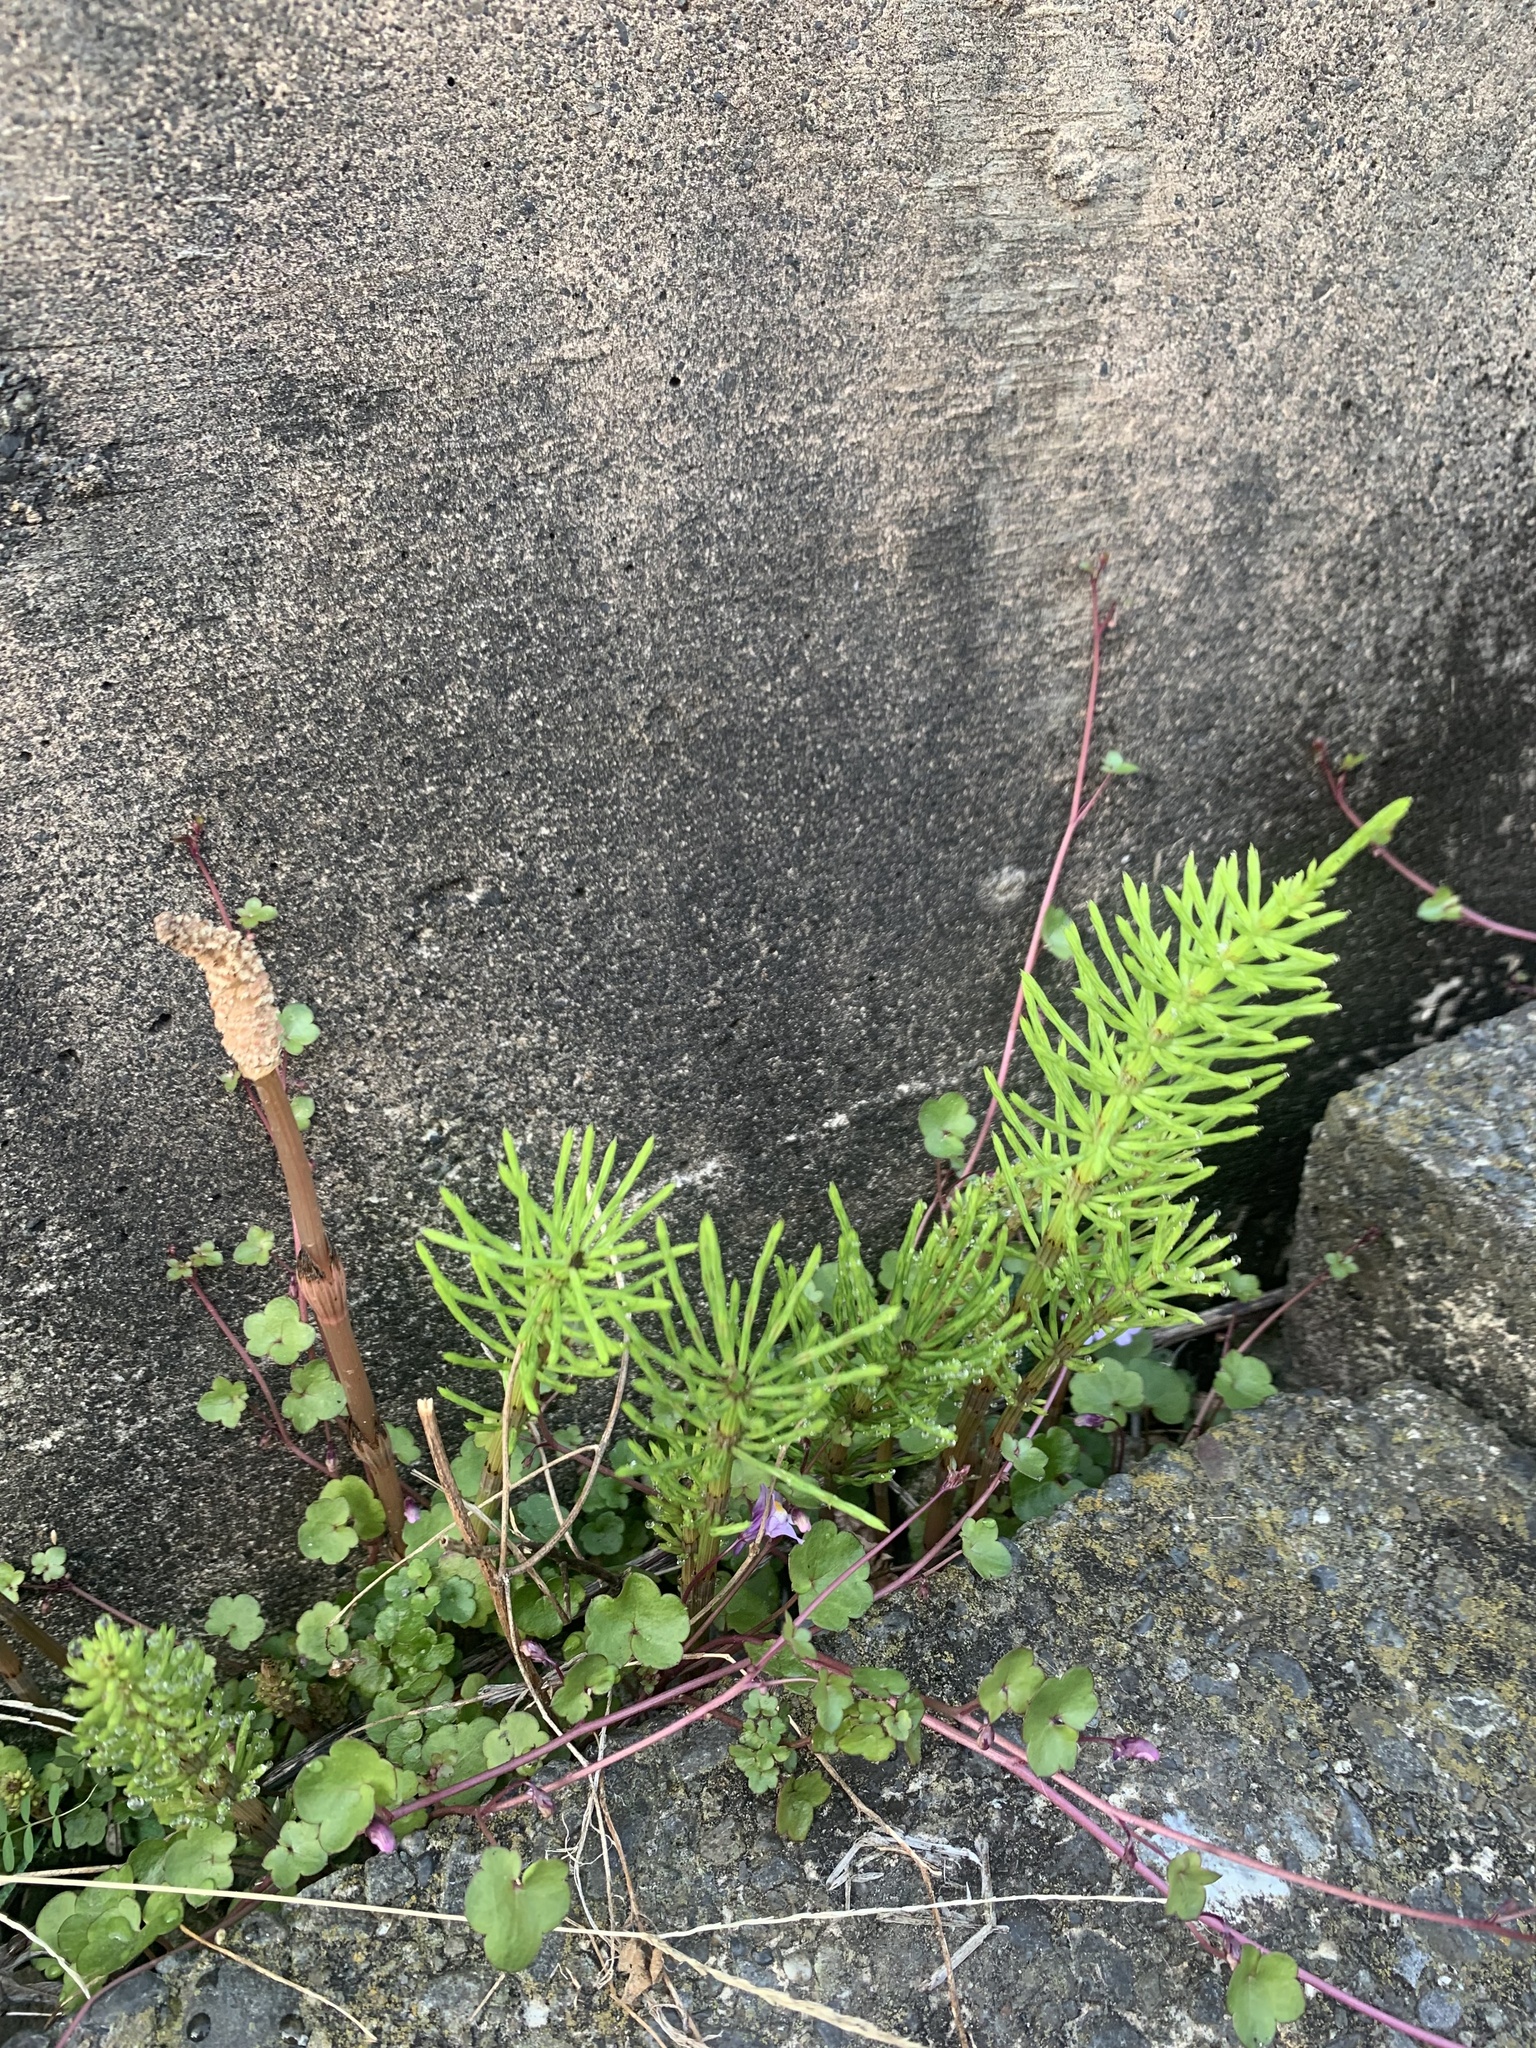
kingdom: Plantae
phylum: Tracheophyta
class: Polypodiopsida
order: Equisetales
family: Equisetaceae
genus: Equisetum
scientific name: Equisetum arvense
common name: Field horsetail
